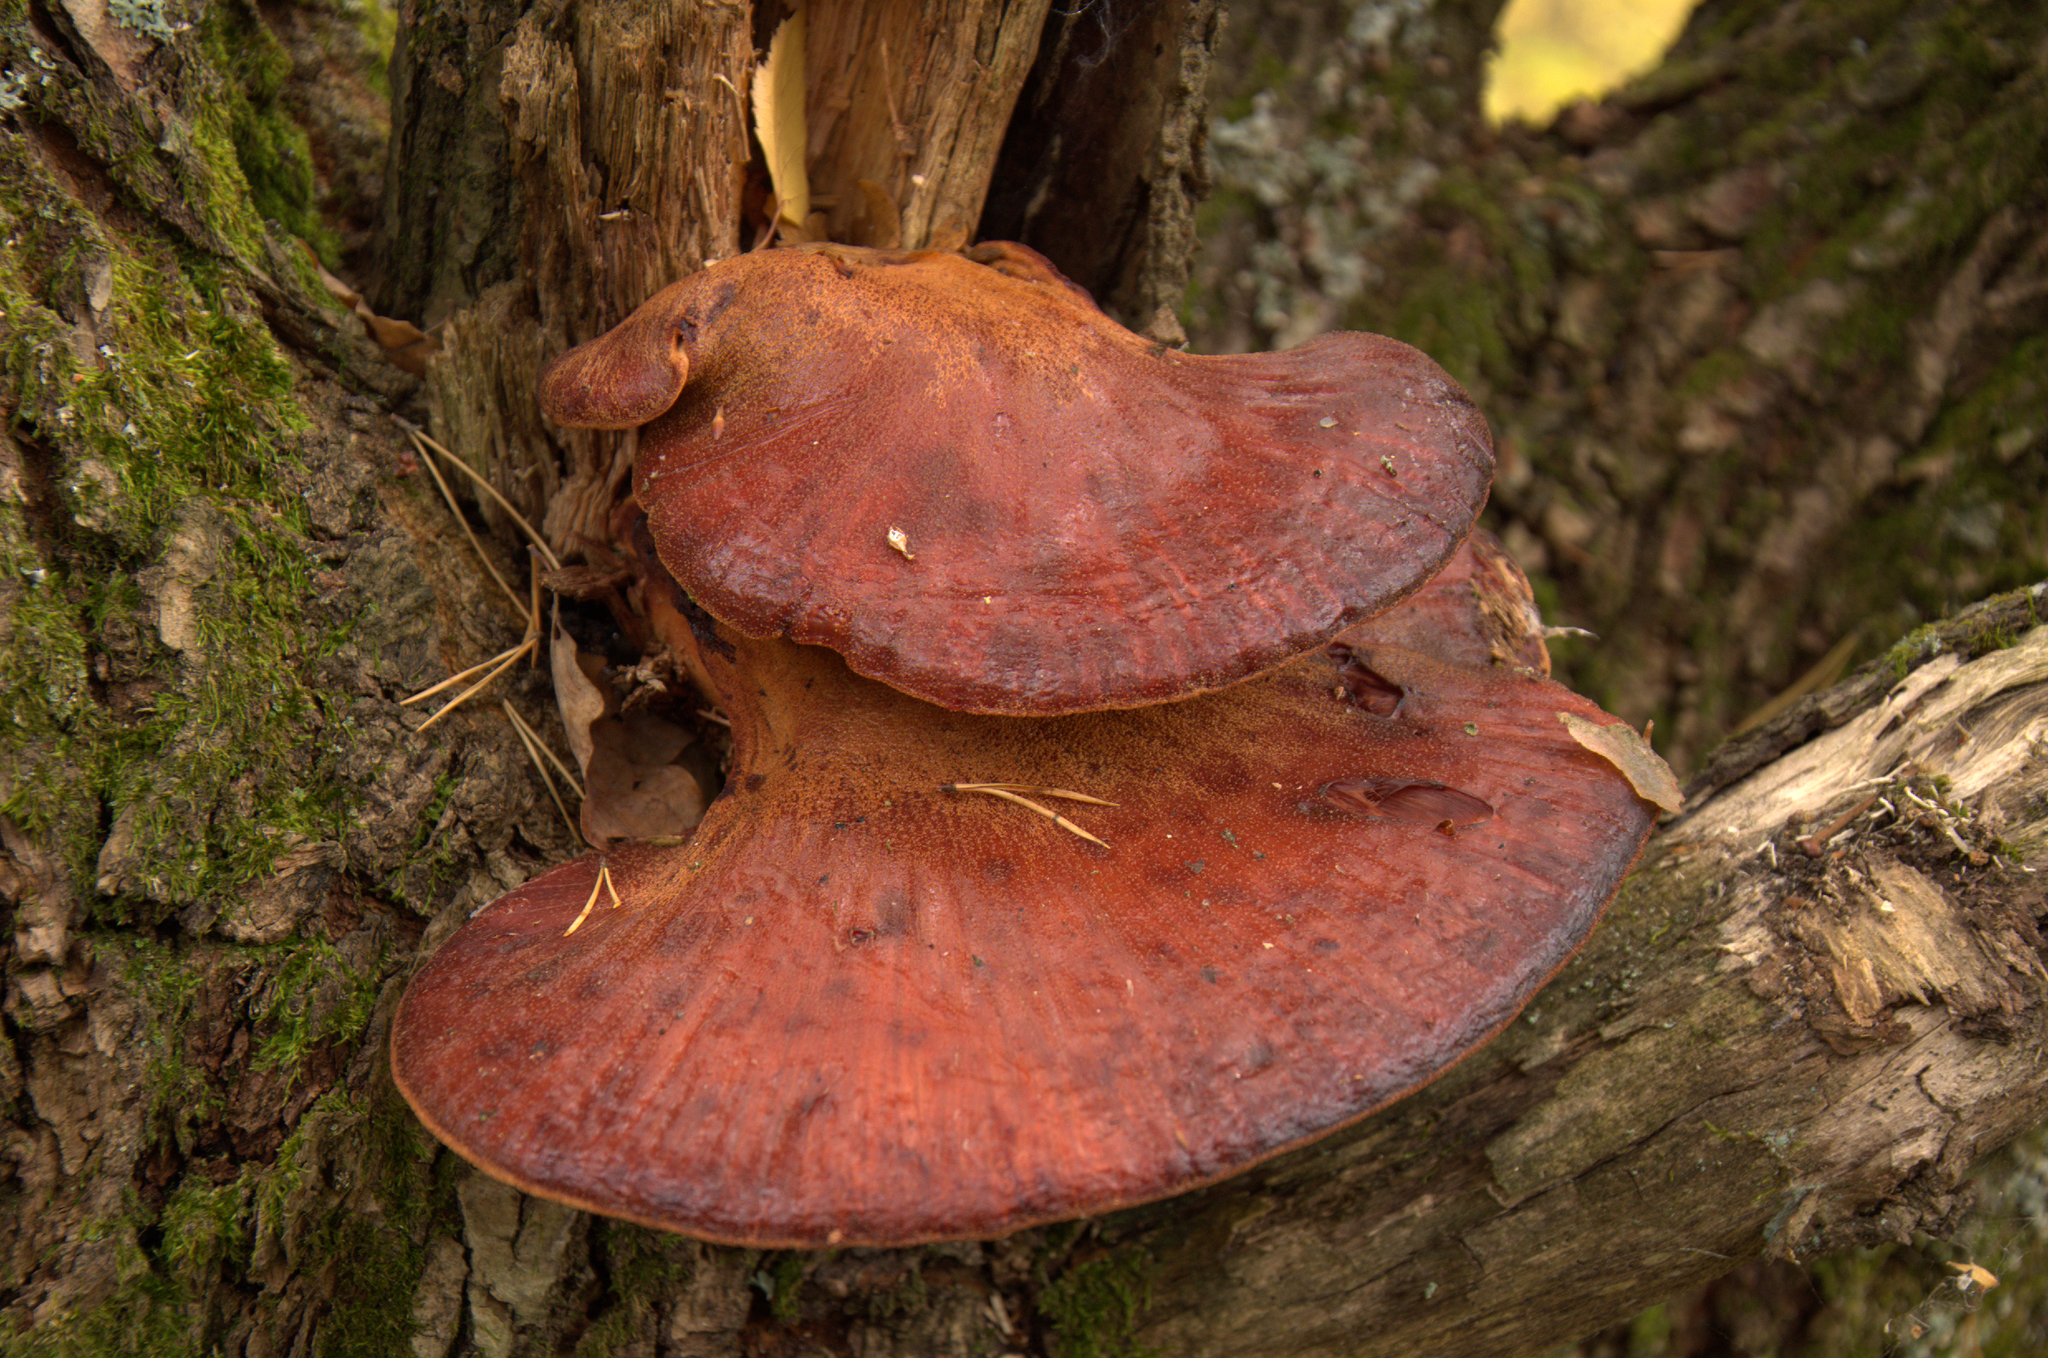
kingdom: Fungi
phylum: Basidiomycota
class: Agaricomycetes
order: Agaricales
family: Fistulinaceae
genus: Fistulina
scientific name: Fistulina hepatica
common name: Beef-steak fungus
